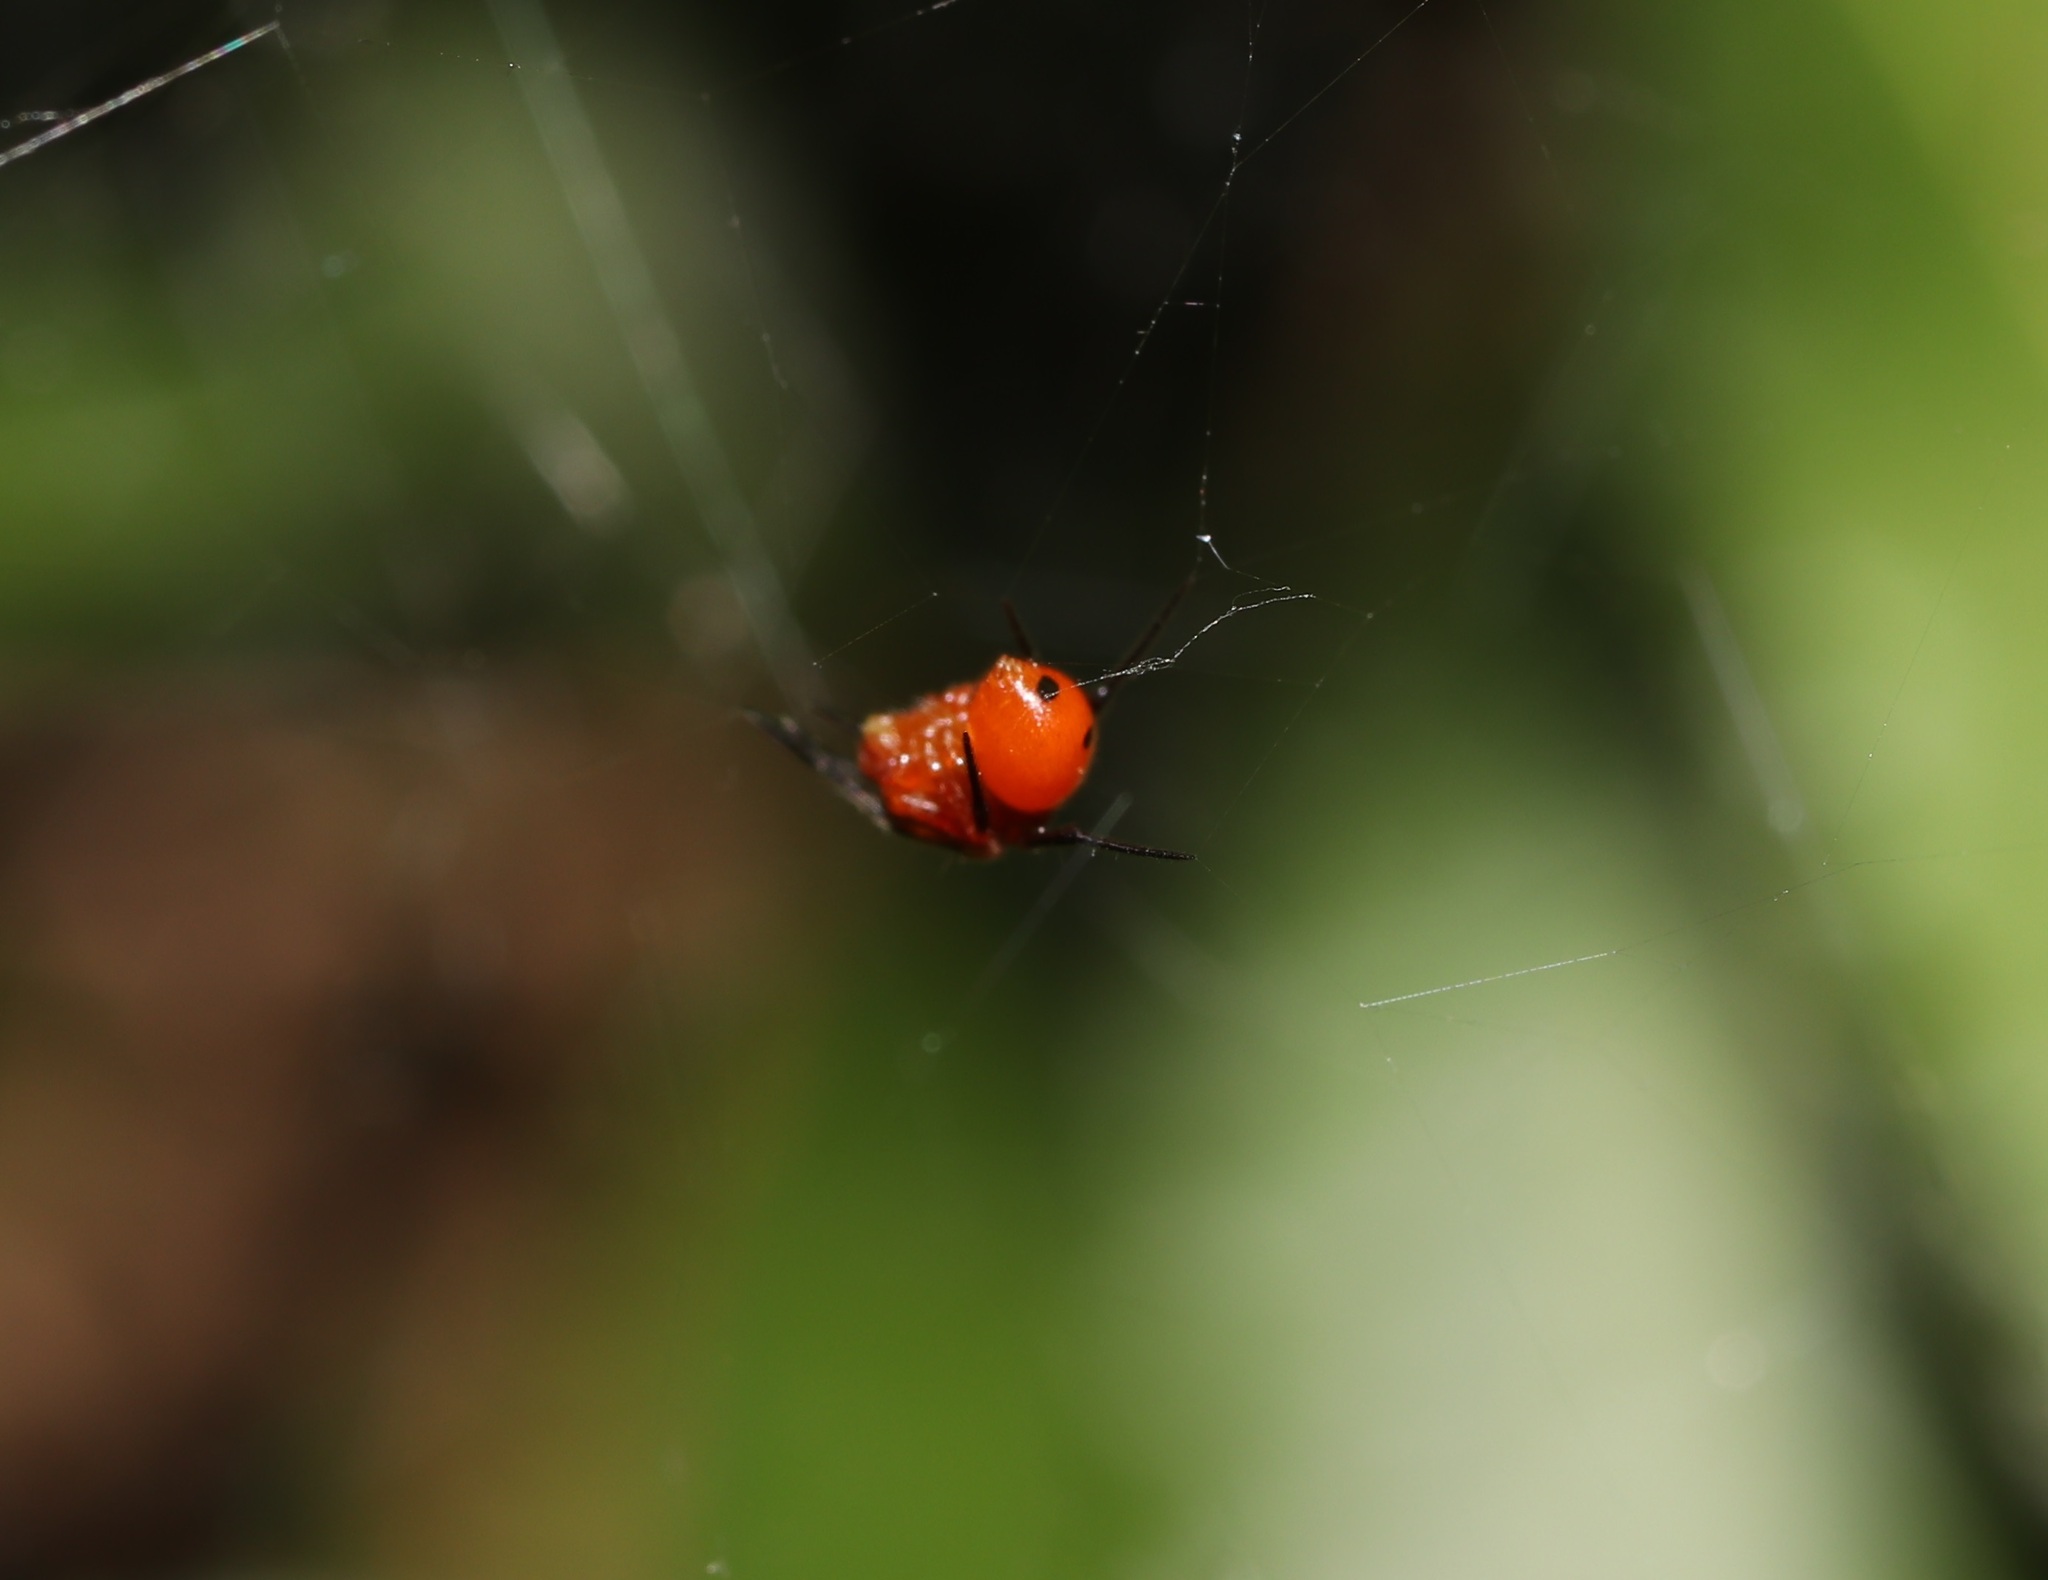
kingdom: Animalia
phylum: Arthropoda
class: Arachnida
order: Araneae
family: Theridiidae
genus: Nihonhimea
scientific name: Nihonhimea japonica
